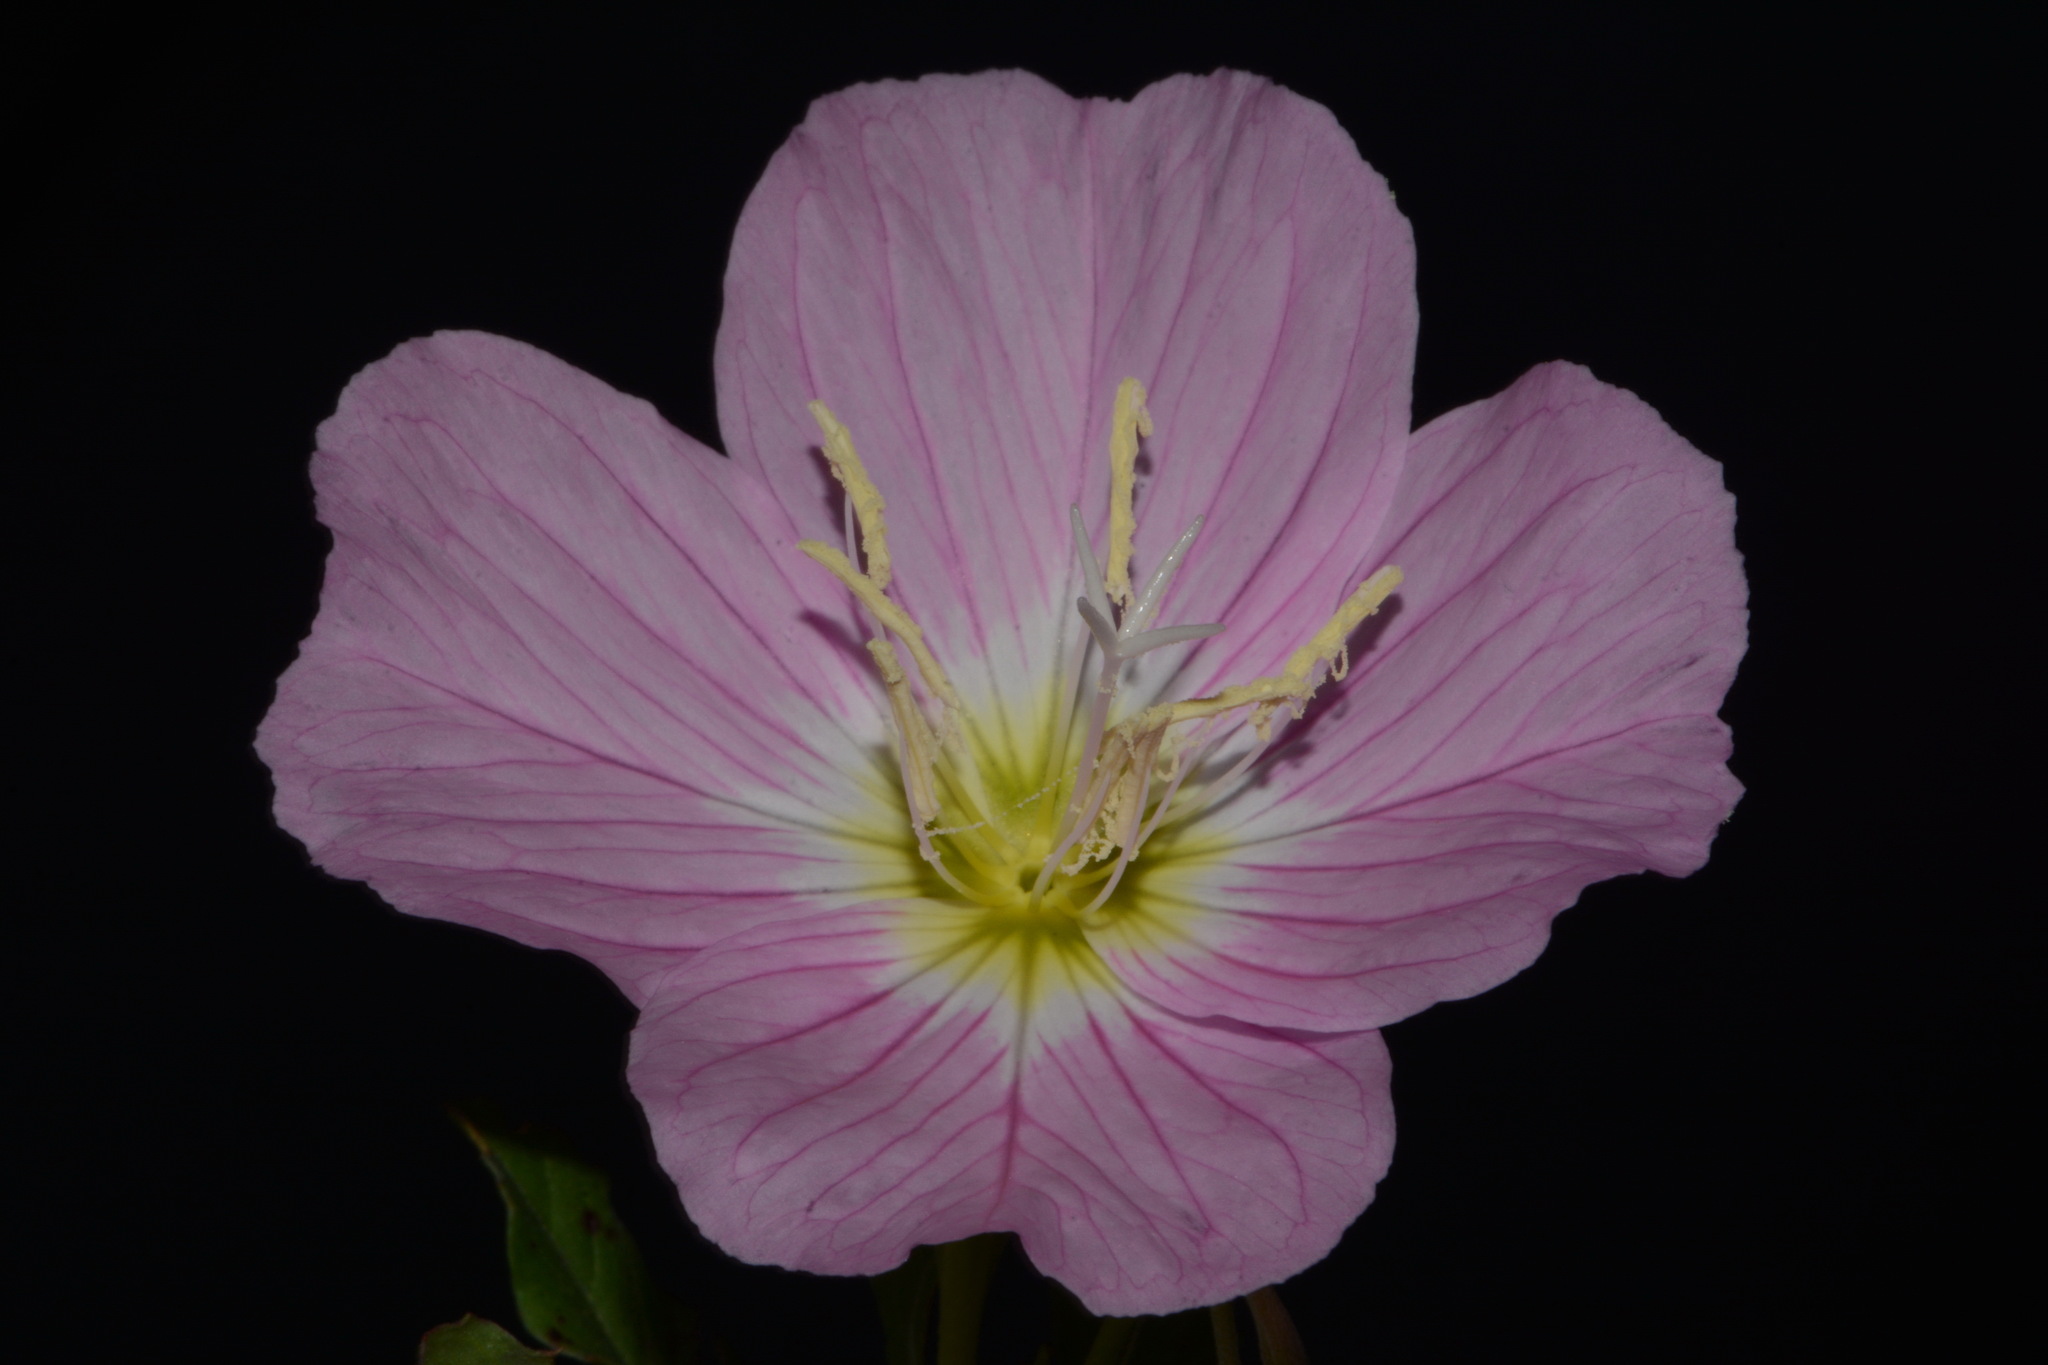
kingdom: Plantae
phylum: Tracheophyta
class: Magnoliopsida
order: Myrtales
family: Onagraceae
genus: Oenothera
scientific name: Oenothera speciosa
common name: White evening-primrose
